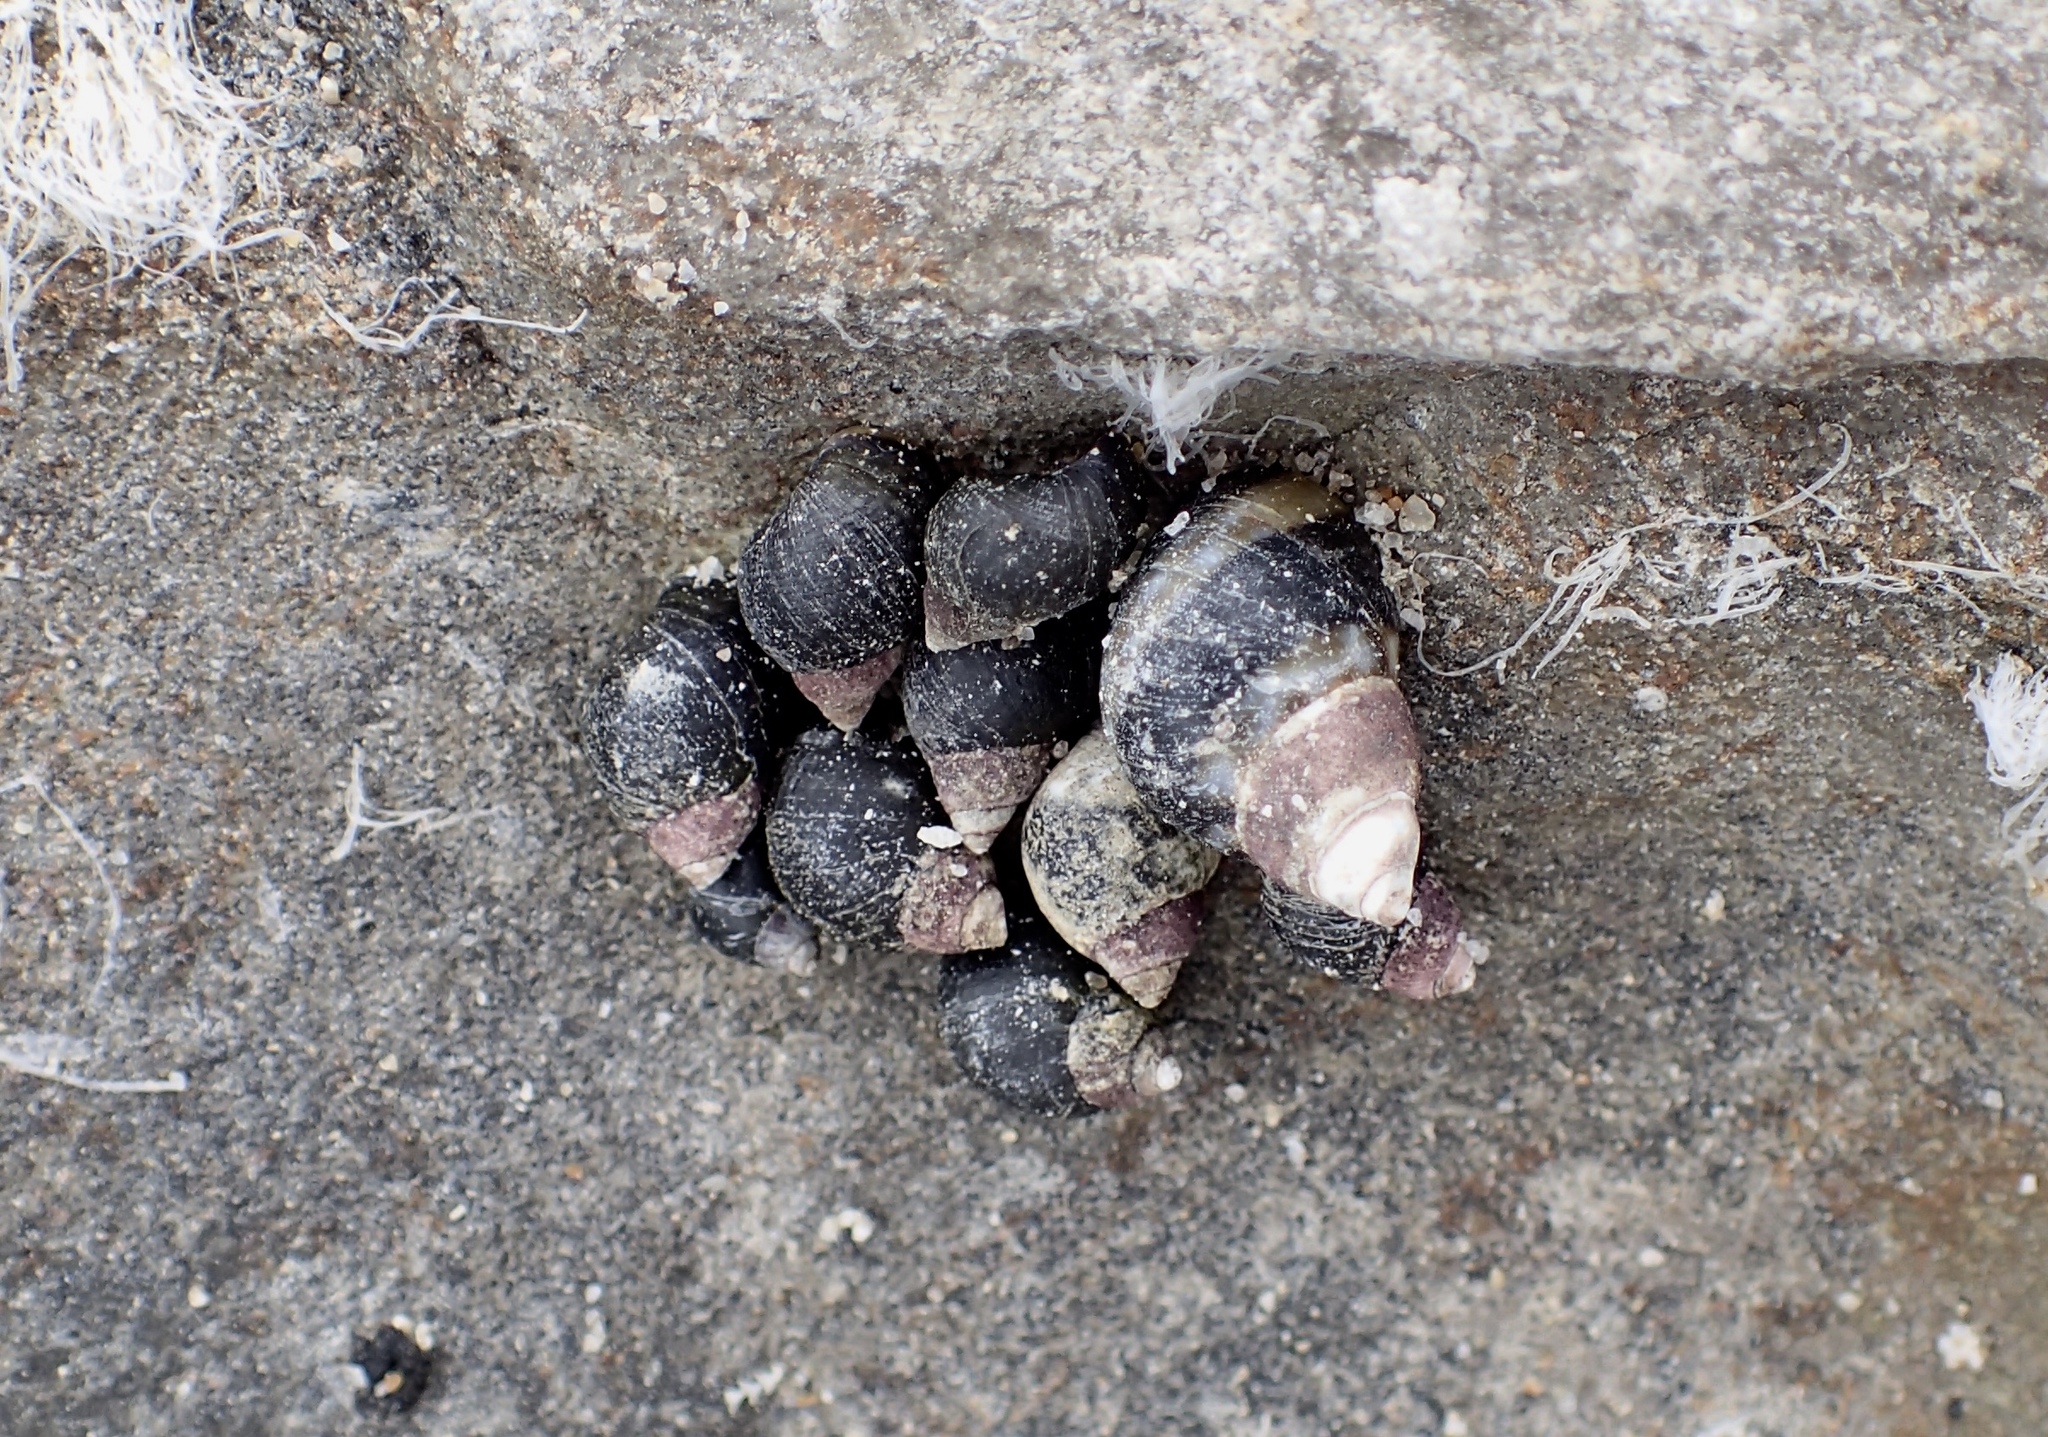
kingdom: Animalia
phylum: Mollusca
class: Gastropoda
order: Littorinimorpha
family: Littorinidae
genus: Littorina
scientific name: Littorina scutulata
